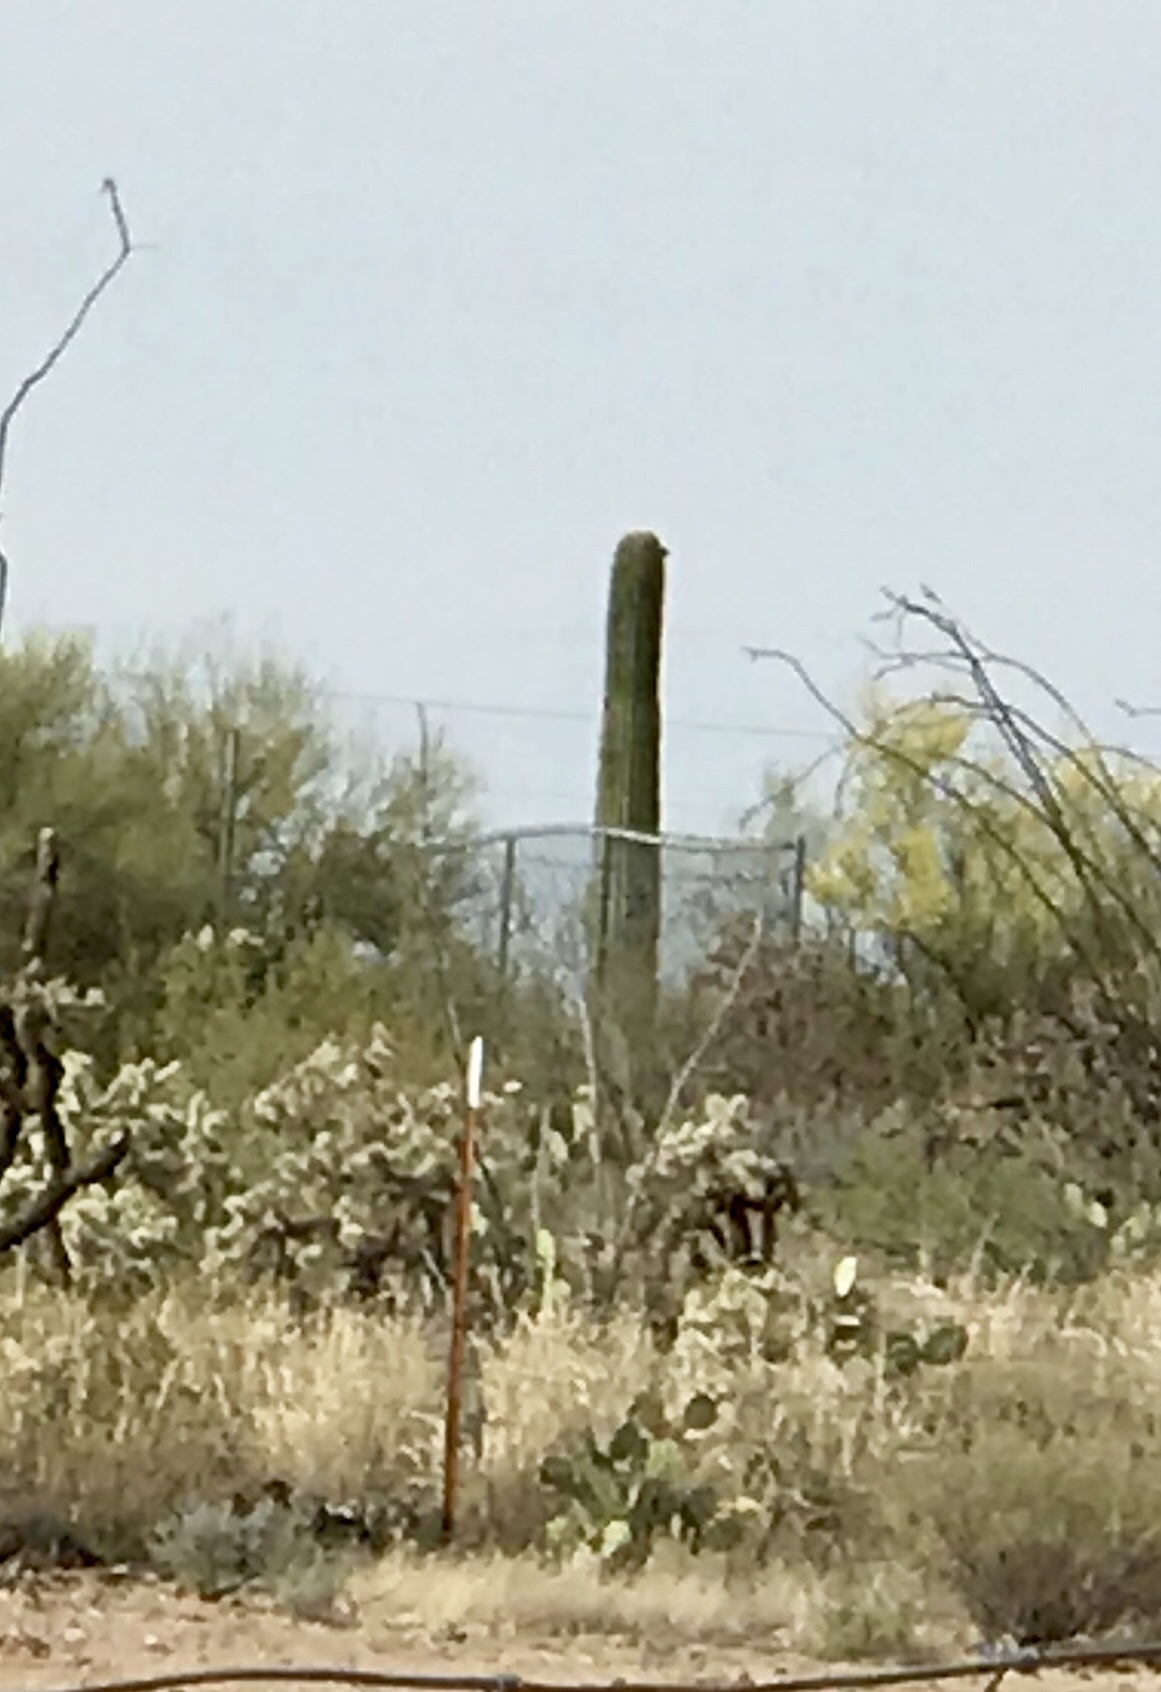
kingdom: Plantae
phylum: Tracheophyta
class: Magnoliopsida
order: Caryophyllales
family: Cactaceae
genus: Carnegiea
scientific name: Carnegiea gigantea
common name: Saguaro
